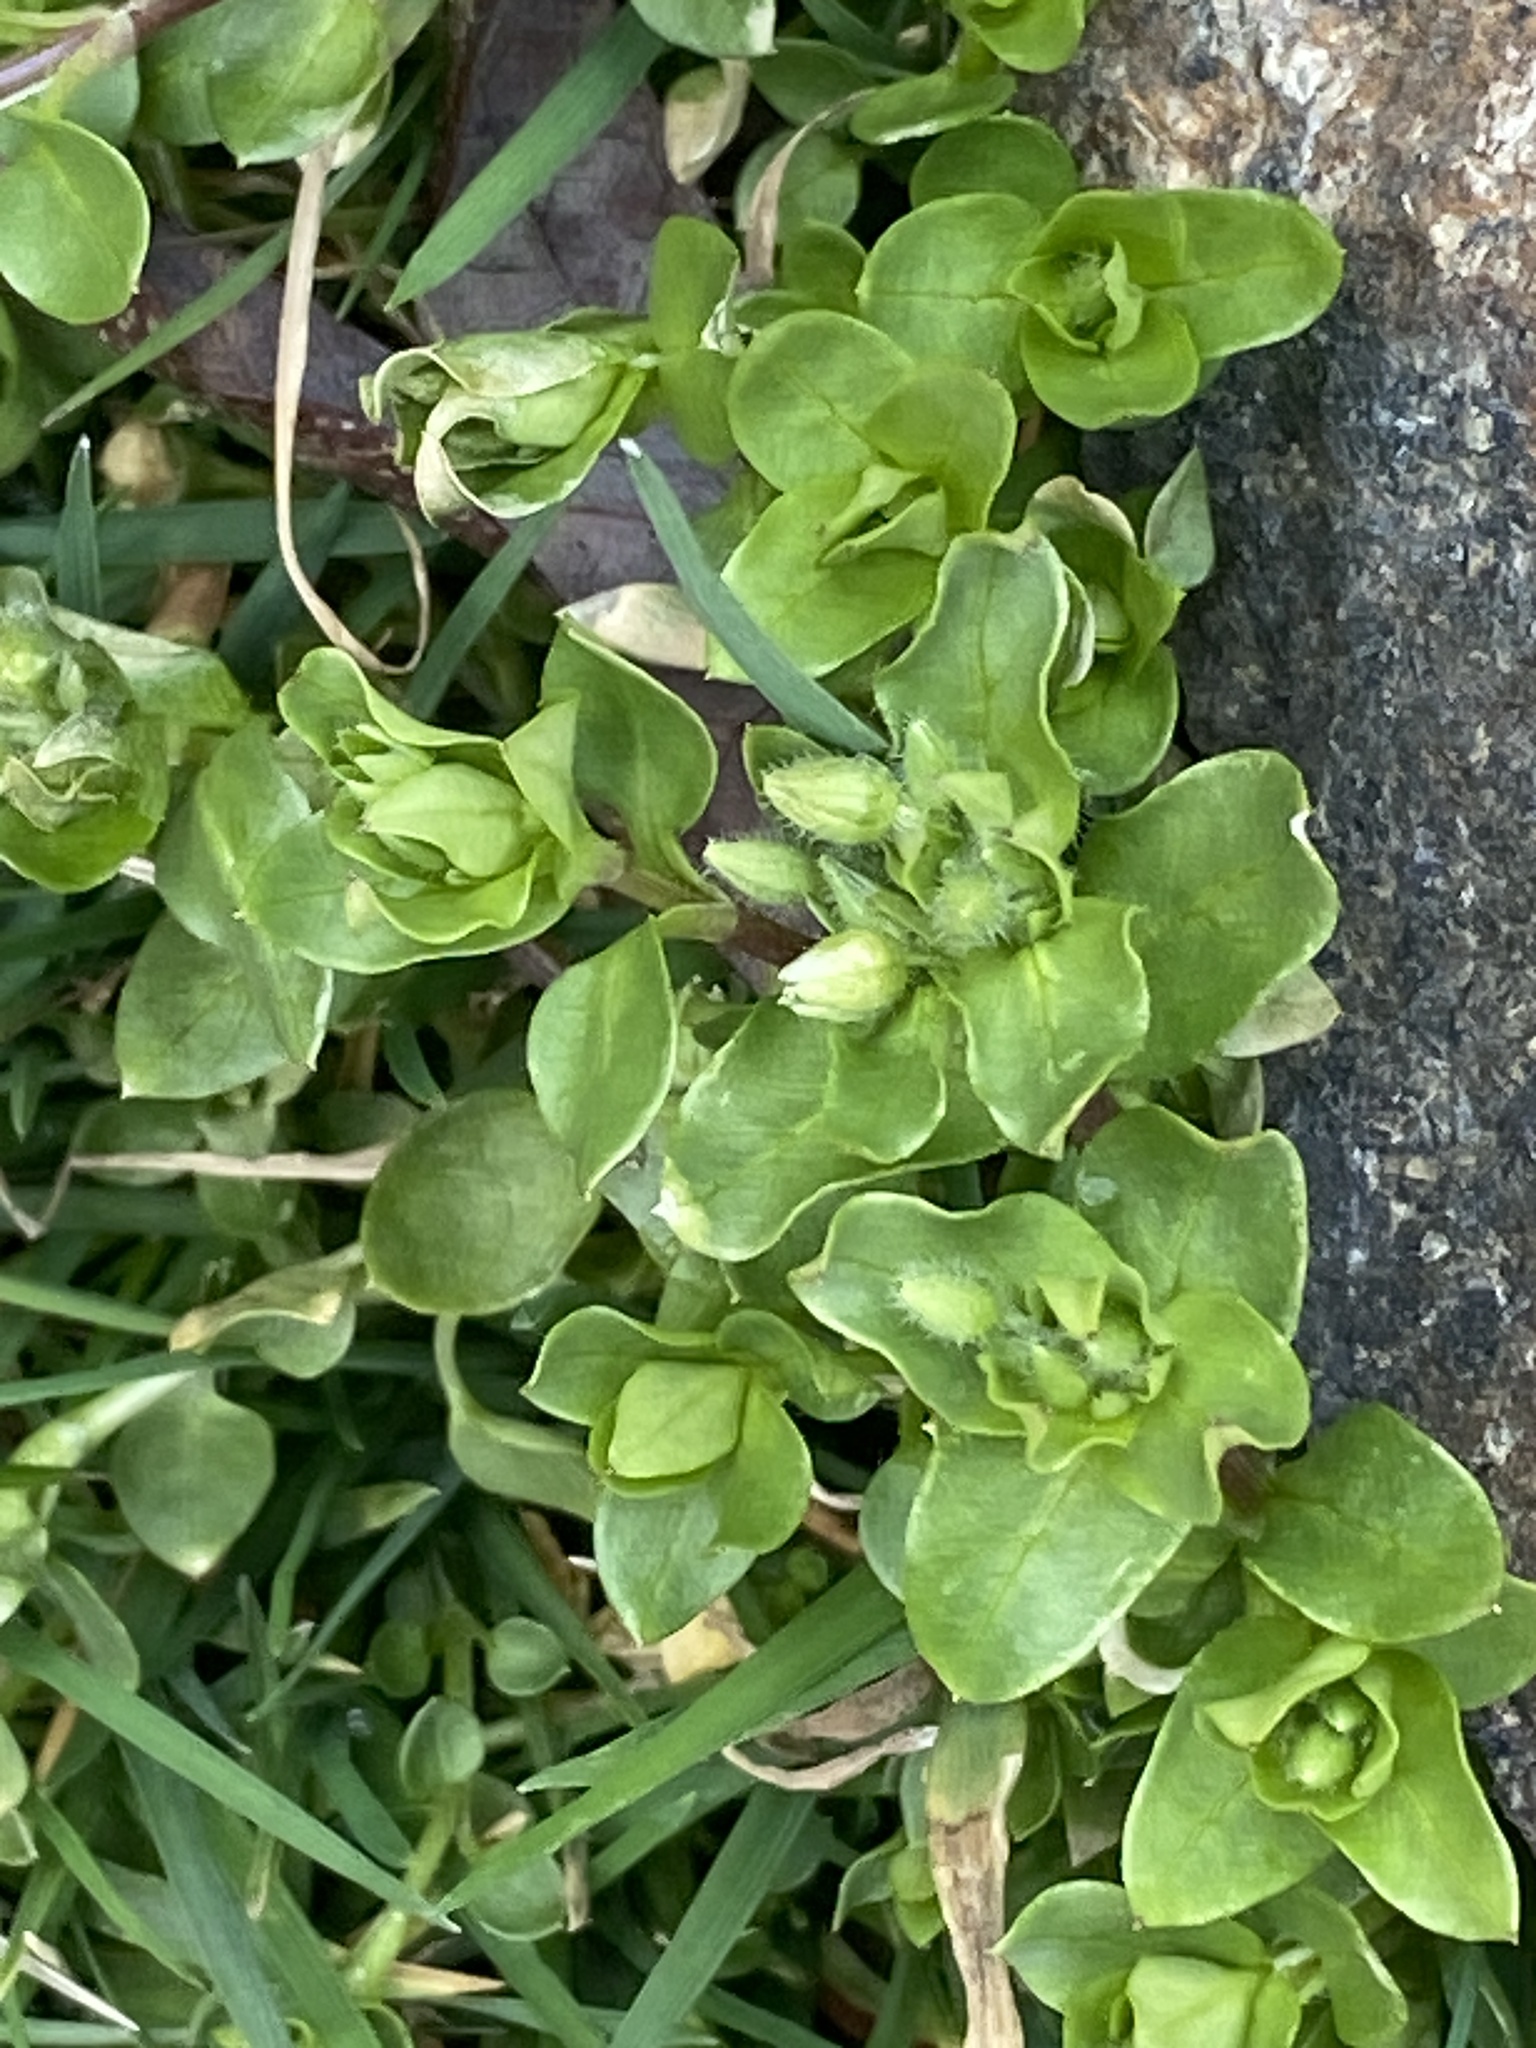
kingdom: Plantae
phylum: Tracheophyta
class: Magnoliopsida
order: Caryophyllales
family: Caryophyllaceae
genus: Stellaria
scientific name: Stellaria media
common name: Common chickweed
